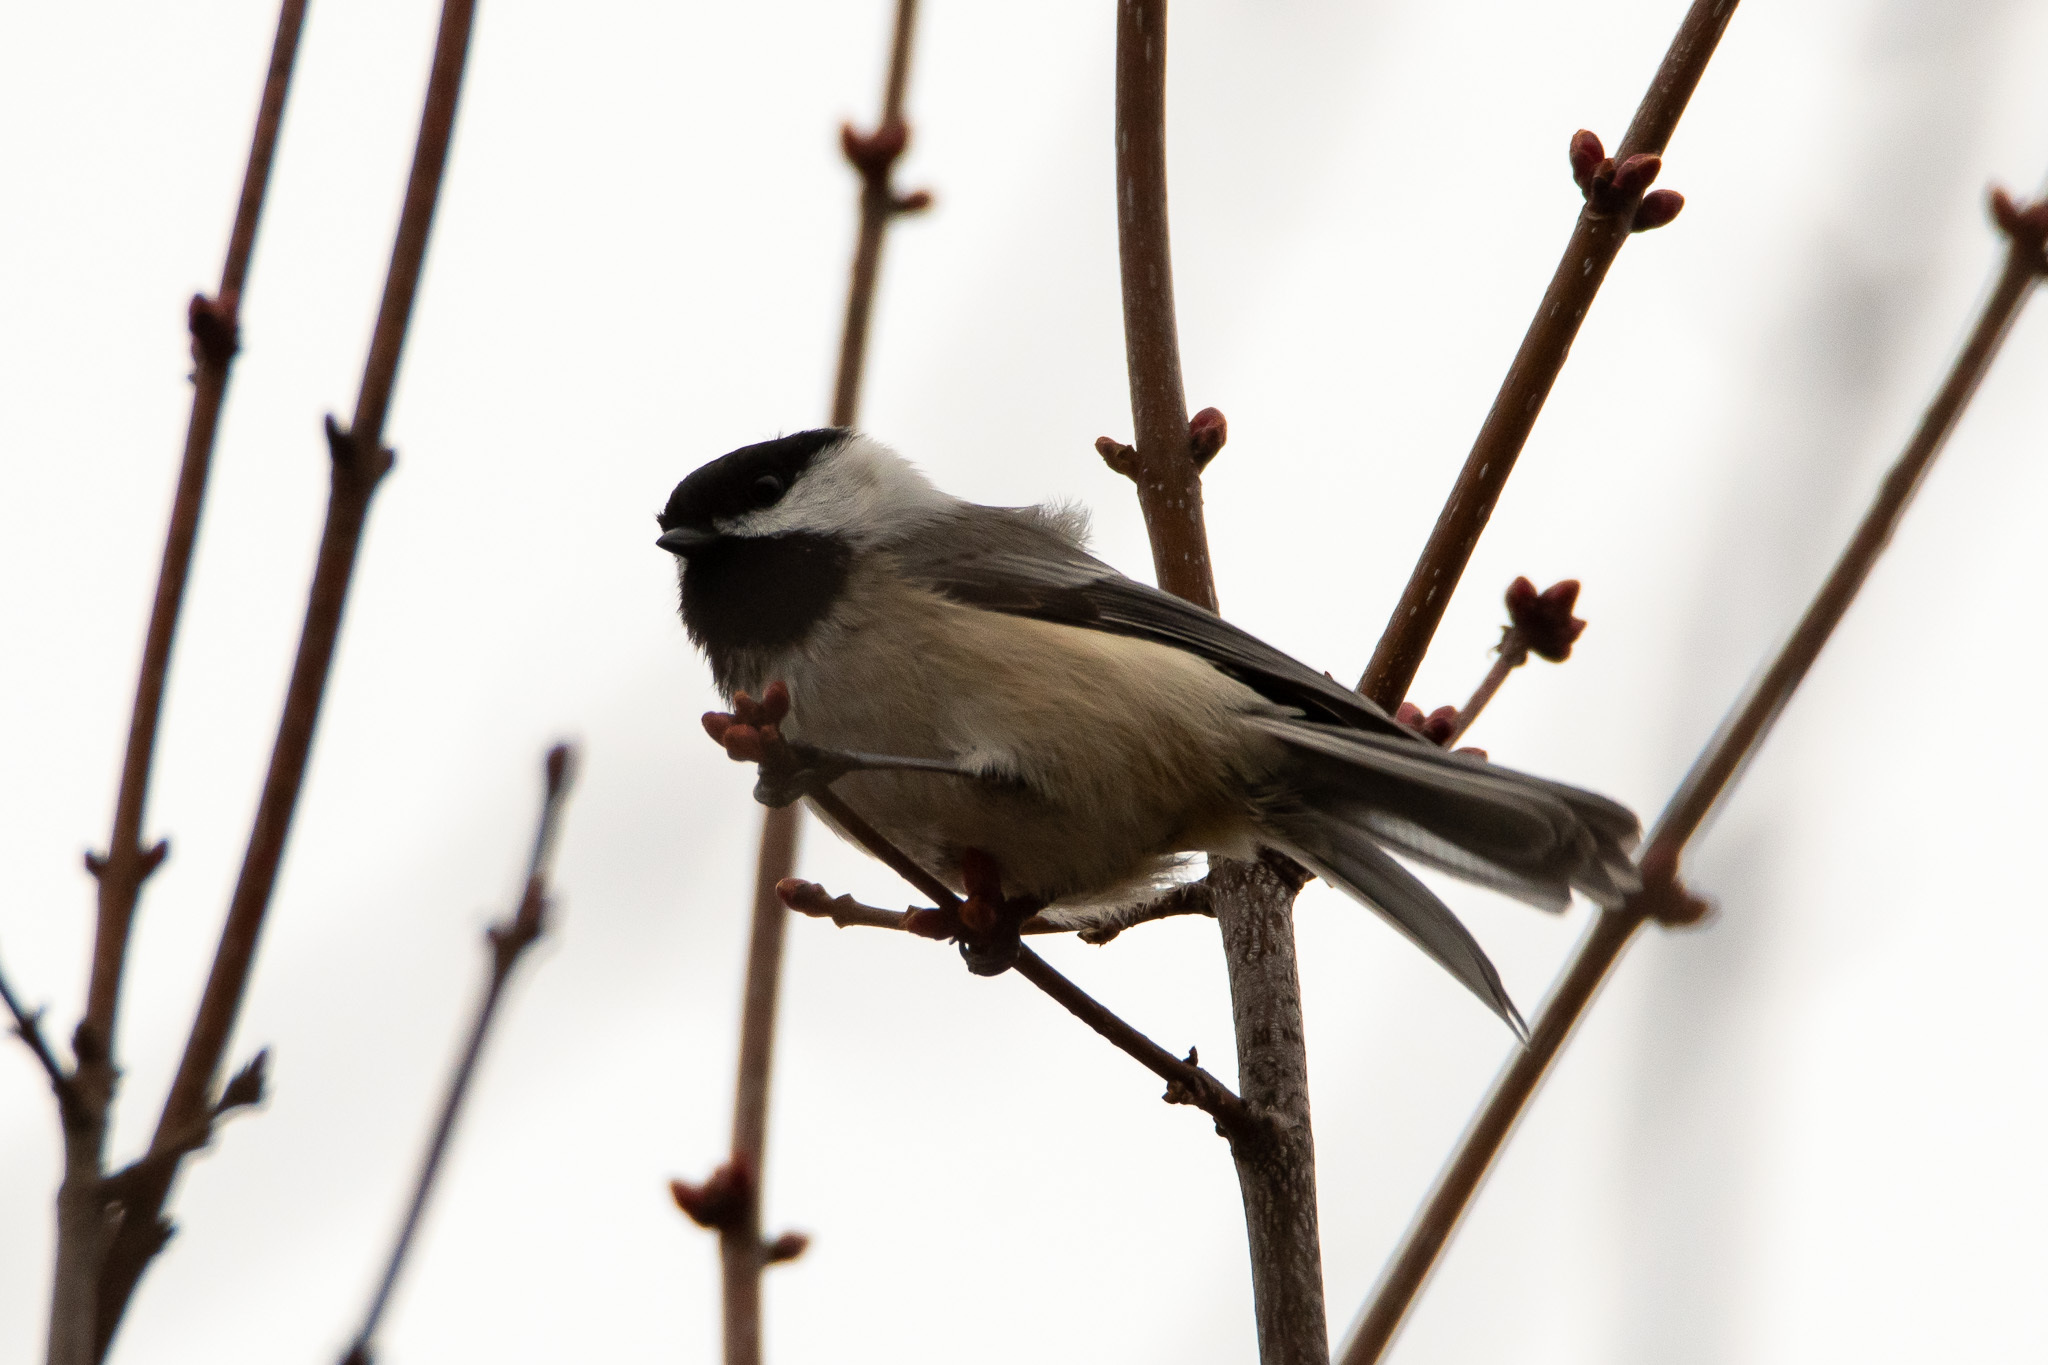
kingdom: Animalia
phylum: Chordata
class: Aves
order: Passeriformes
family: Paridae
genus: Poecile
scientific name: Poecile atricapillus
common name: Black-capped chickadee
